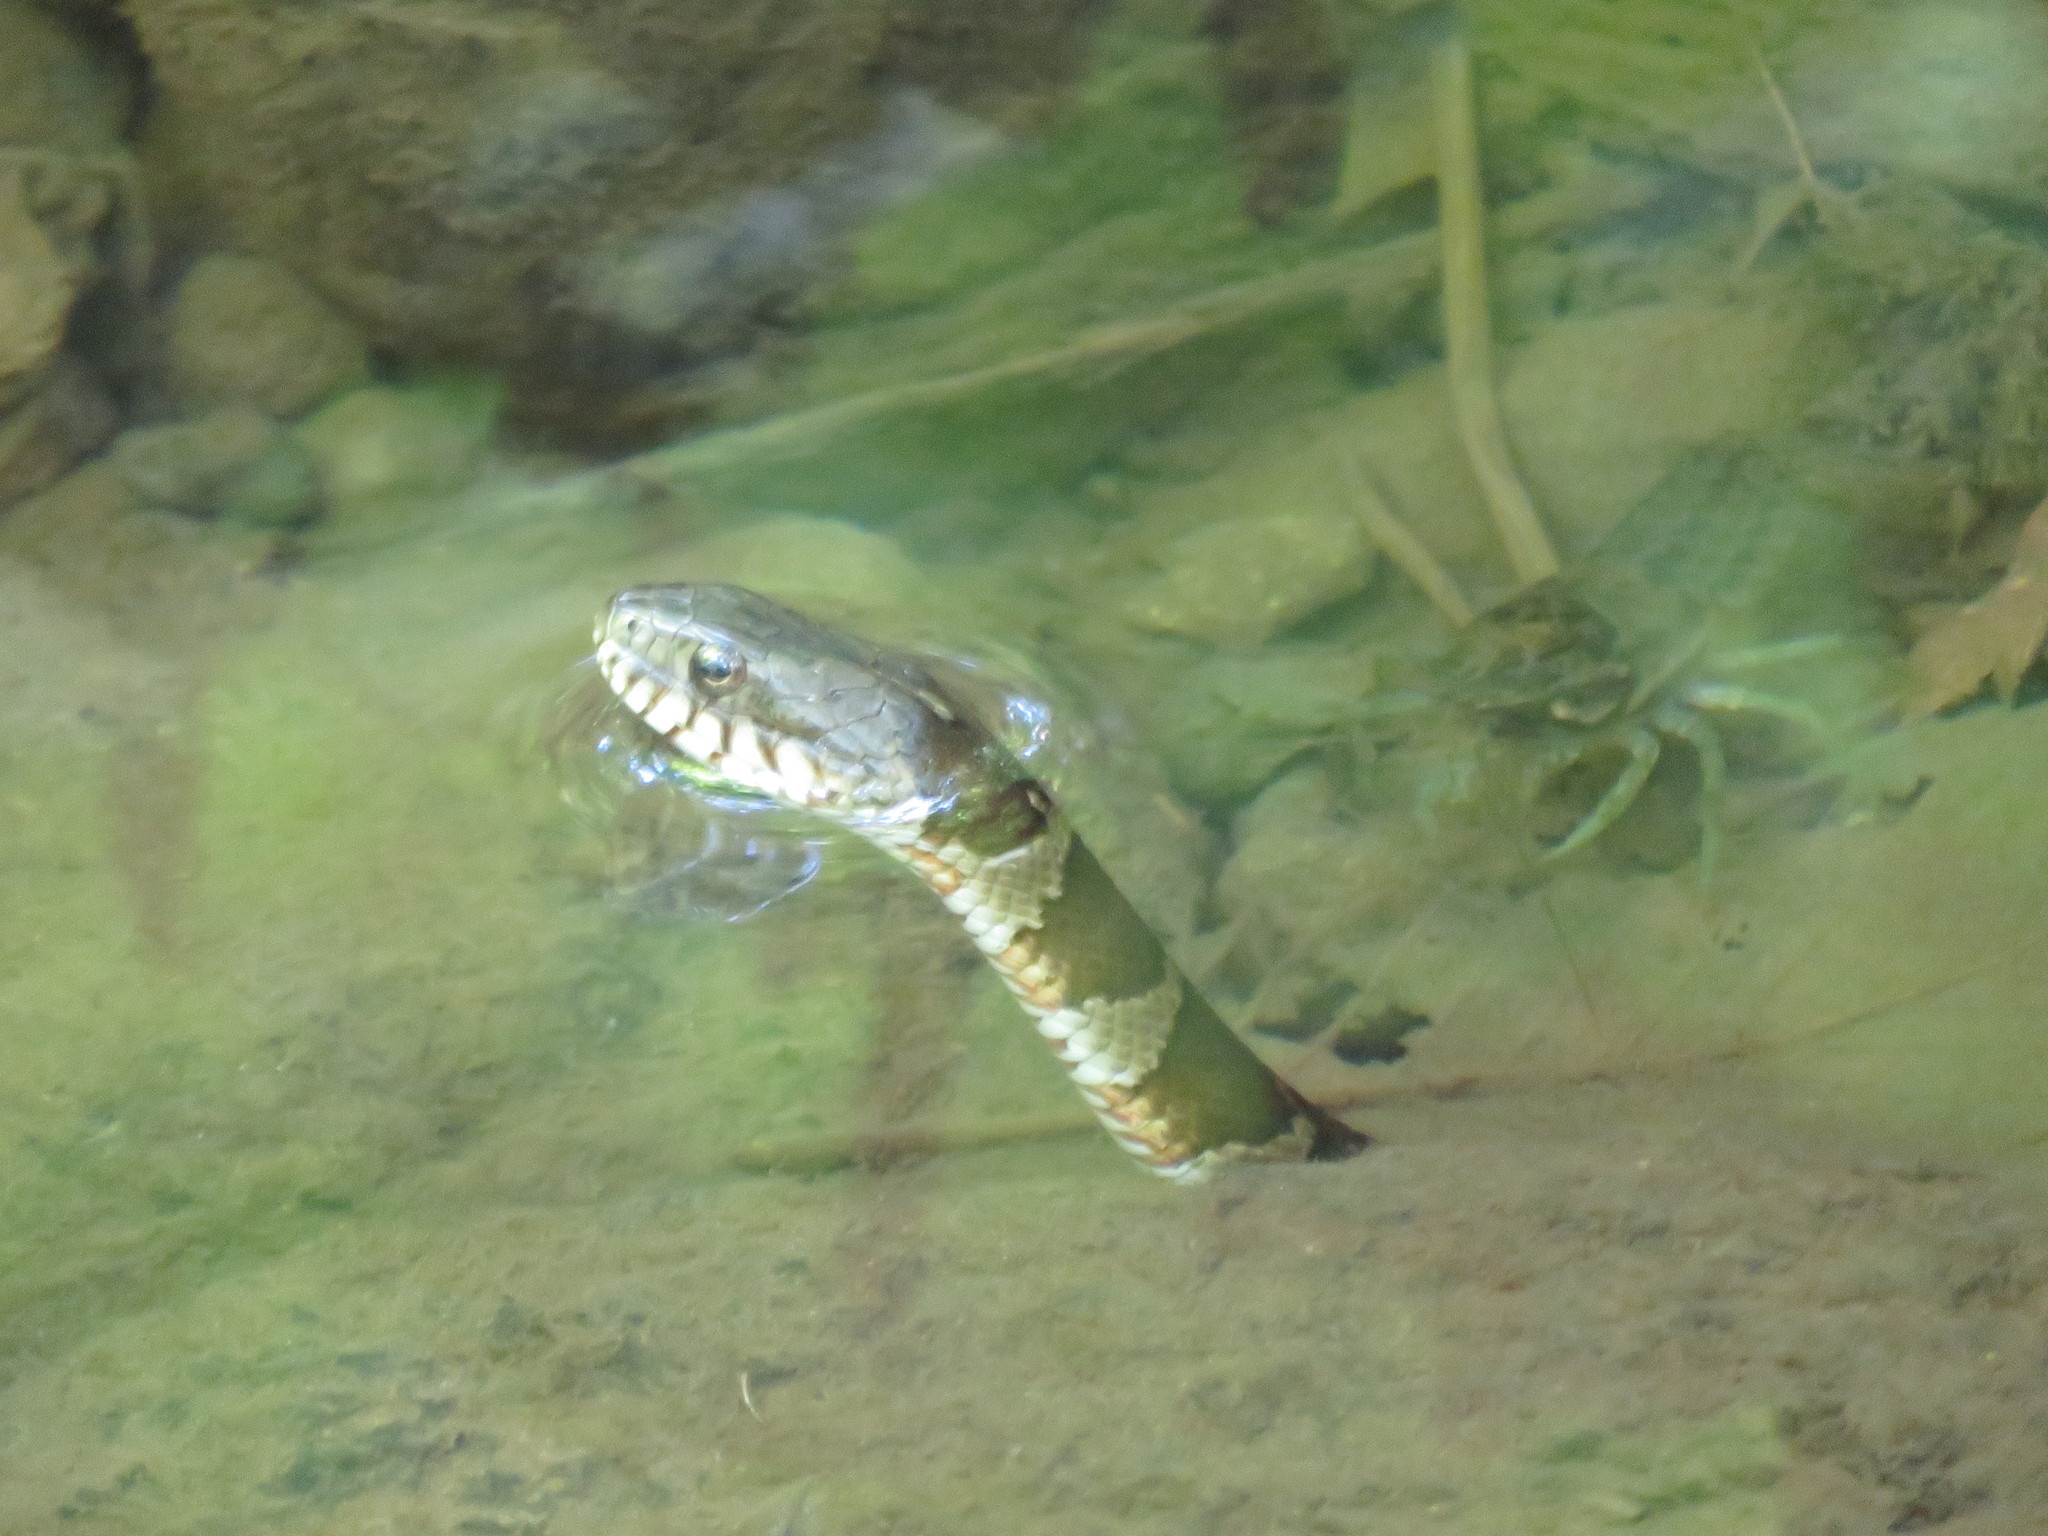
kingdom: Animalia
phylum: Chordata
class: Squamata
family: Colubridae
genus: Nerodia
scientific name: Nerodia sipedon
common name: Northern water snake
